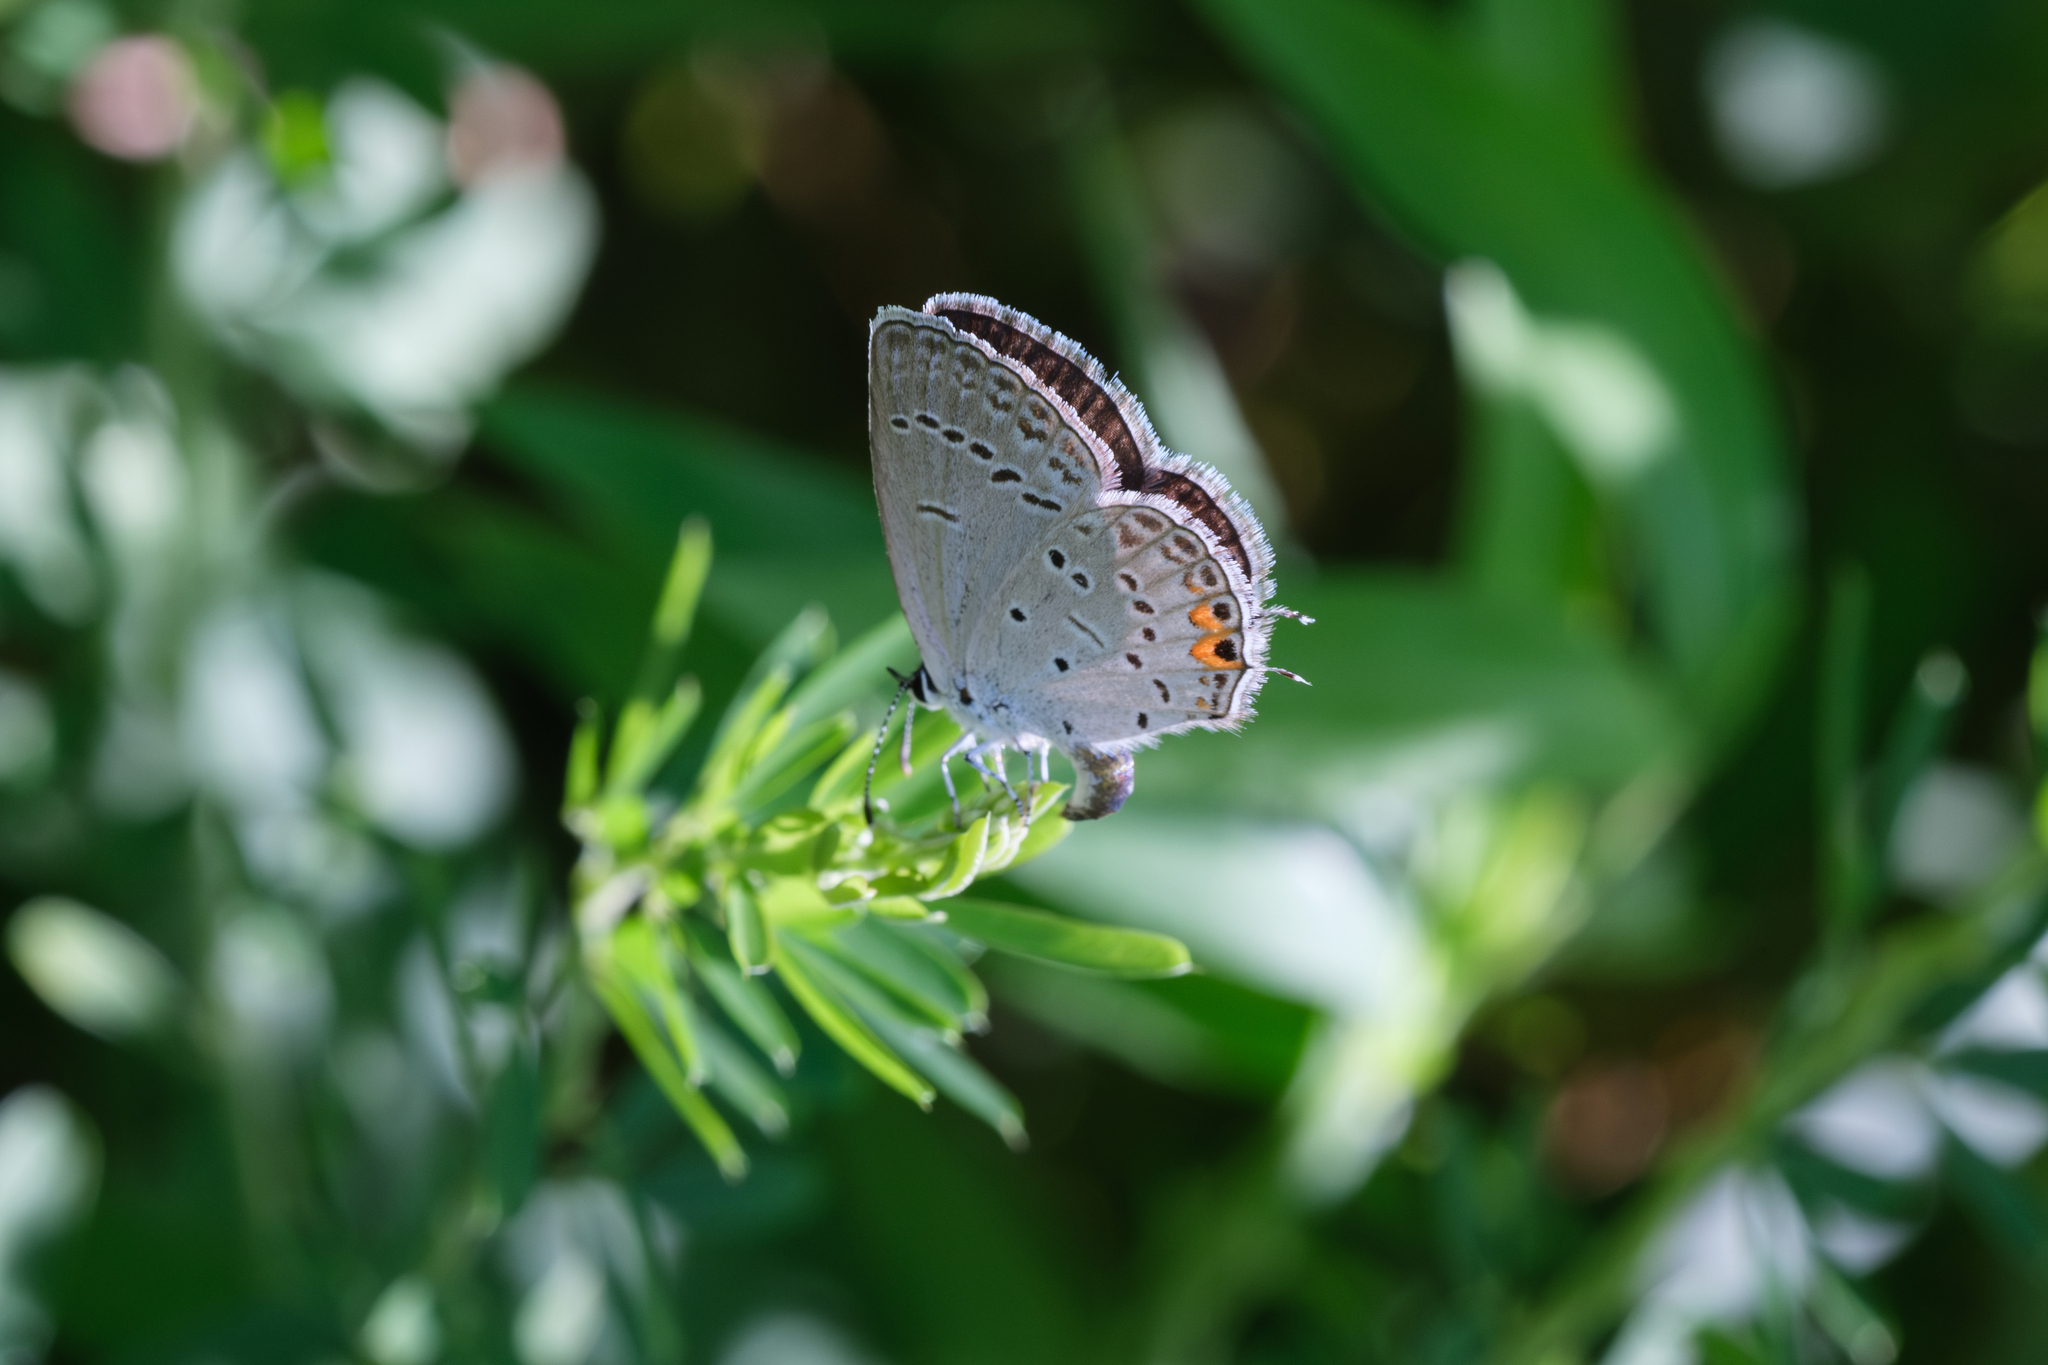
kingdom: Animalia
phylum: Arthropoda
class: Insecta
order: Lepidoptera
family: Lycaenidae
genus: Elkalyce
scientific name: Elkalyce comyntas
